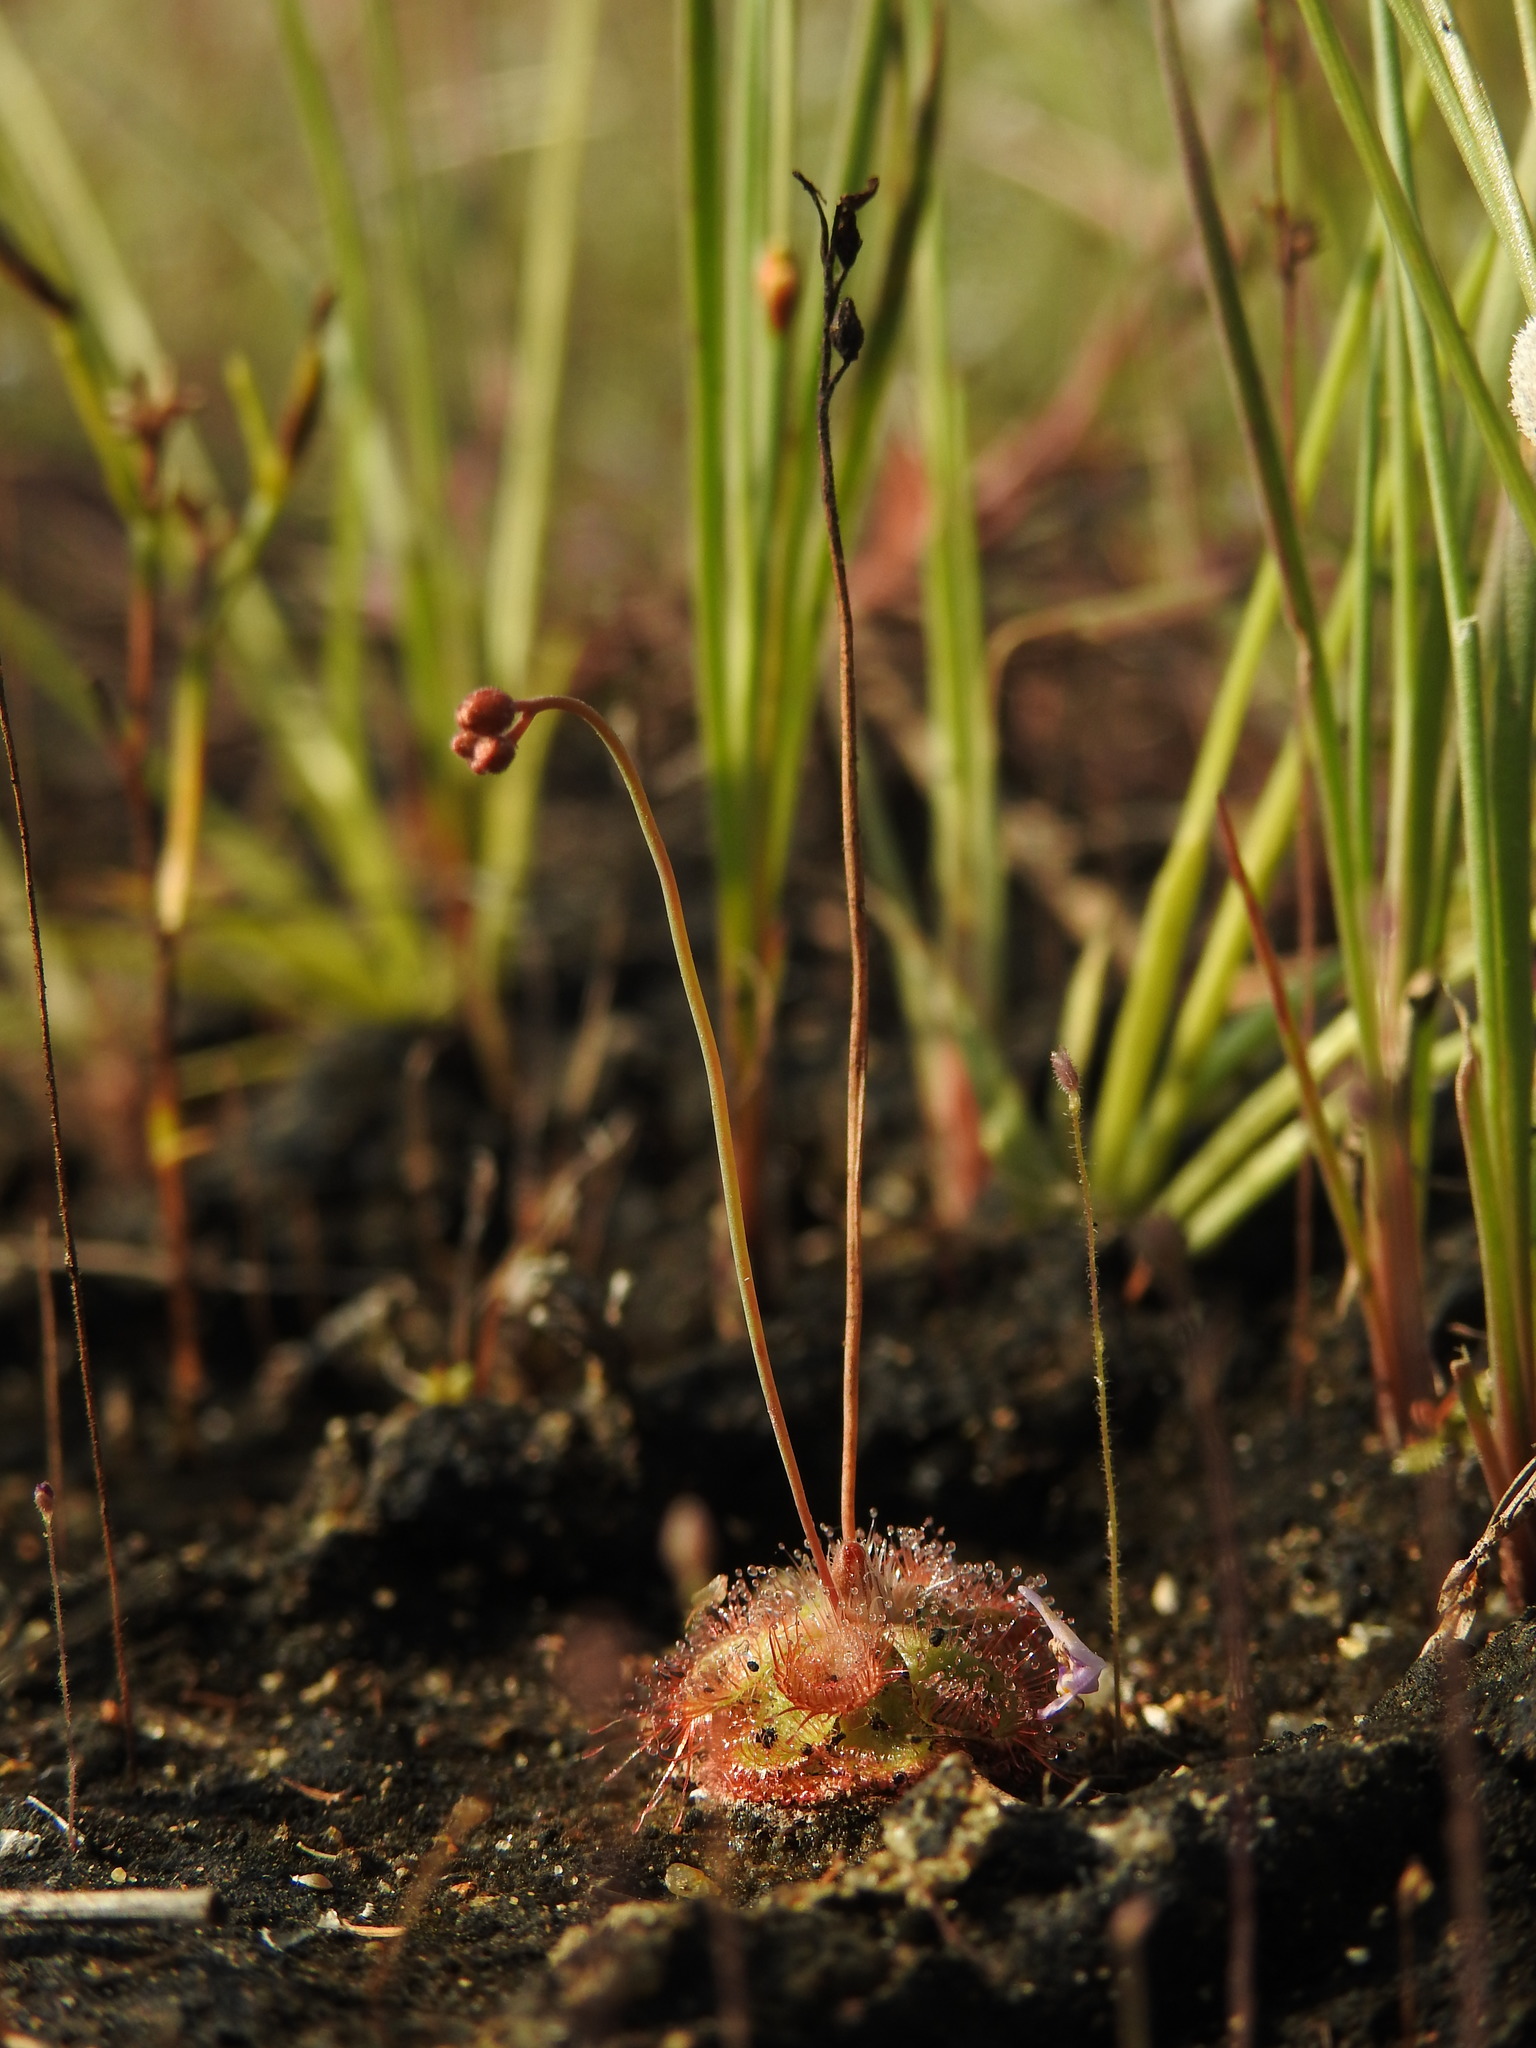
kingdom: Plantae
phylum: Tracheophyta
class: Magnoliopsida
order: Caryophyllales
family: Droseraceae
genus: Drosera
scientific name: Drosera spatulata
